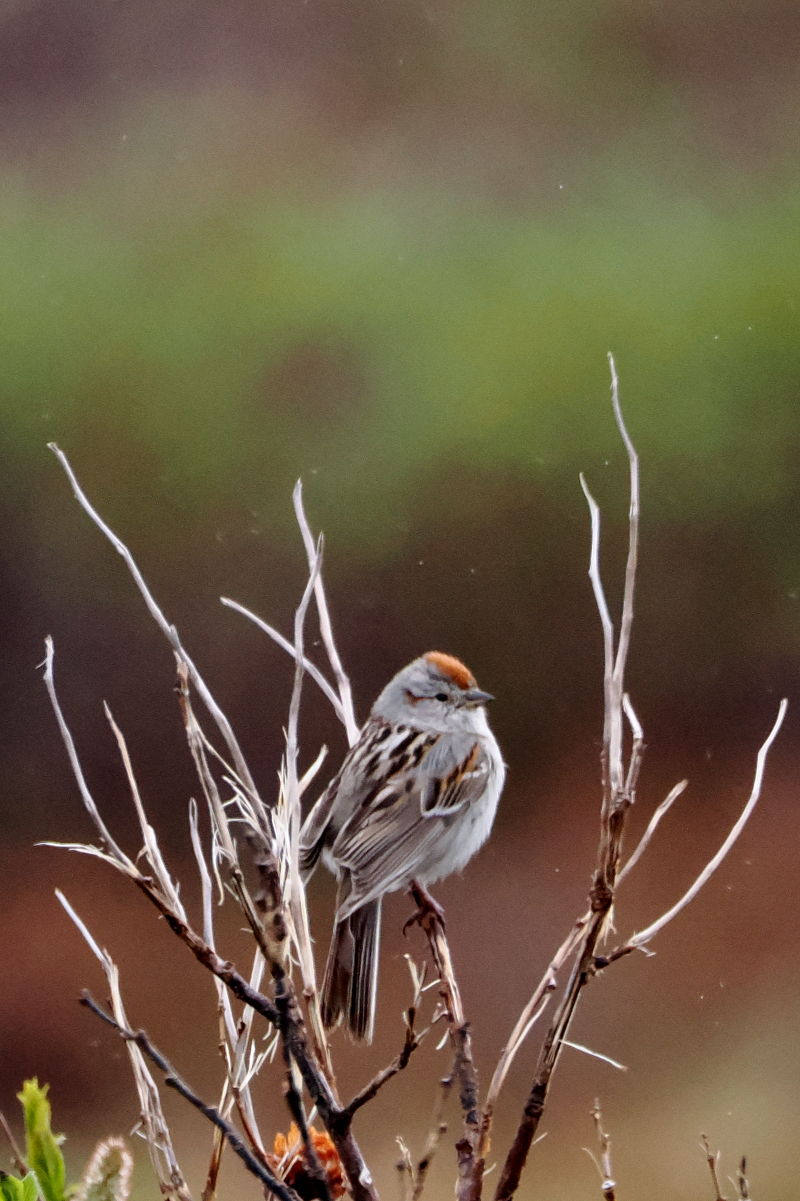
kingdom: Animalia
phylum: Chordata
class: Aves
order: Passeriformes
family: Passerellidae
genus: Spizelloides
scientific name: Spizelloides arborea
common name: American tree sparrow
